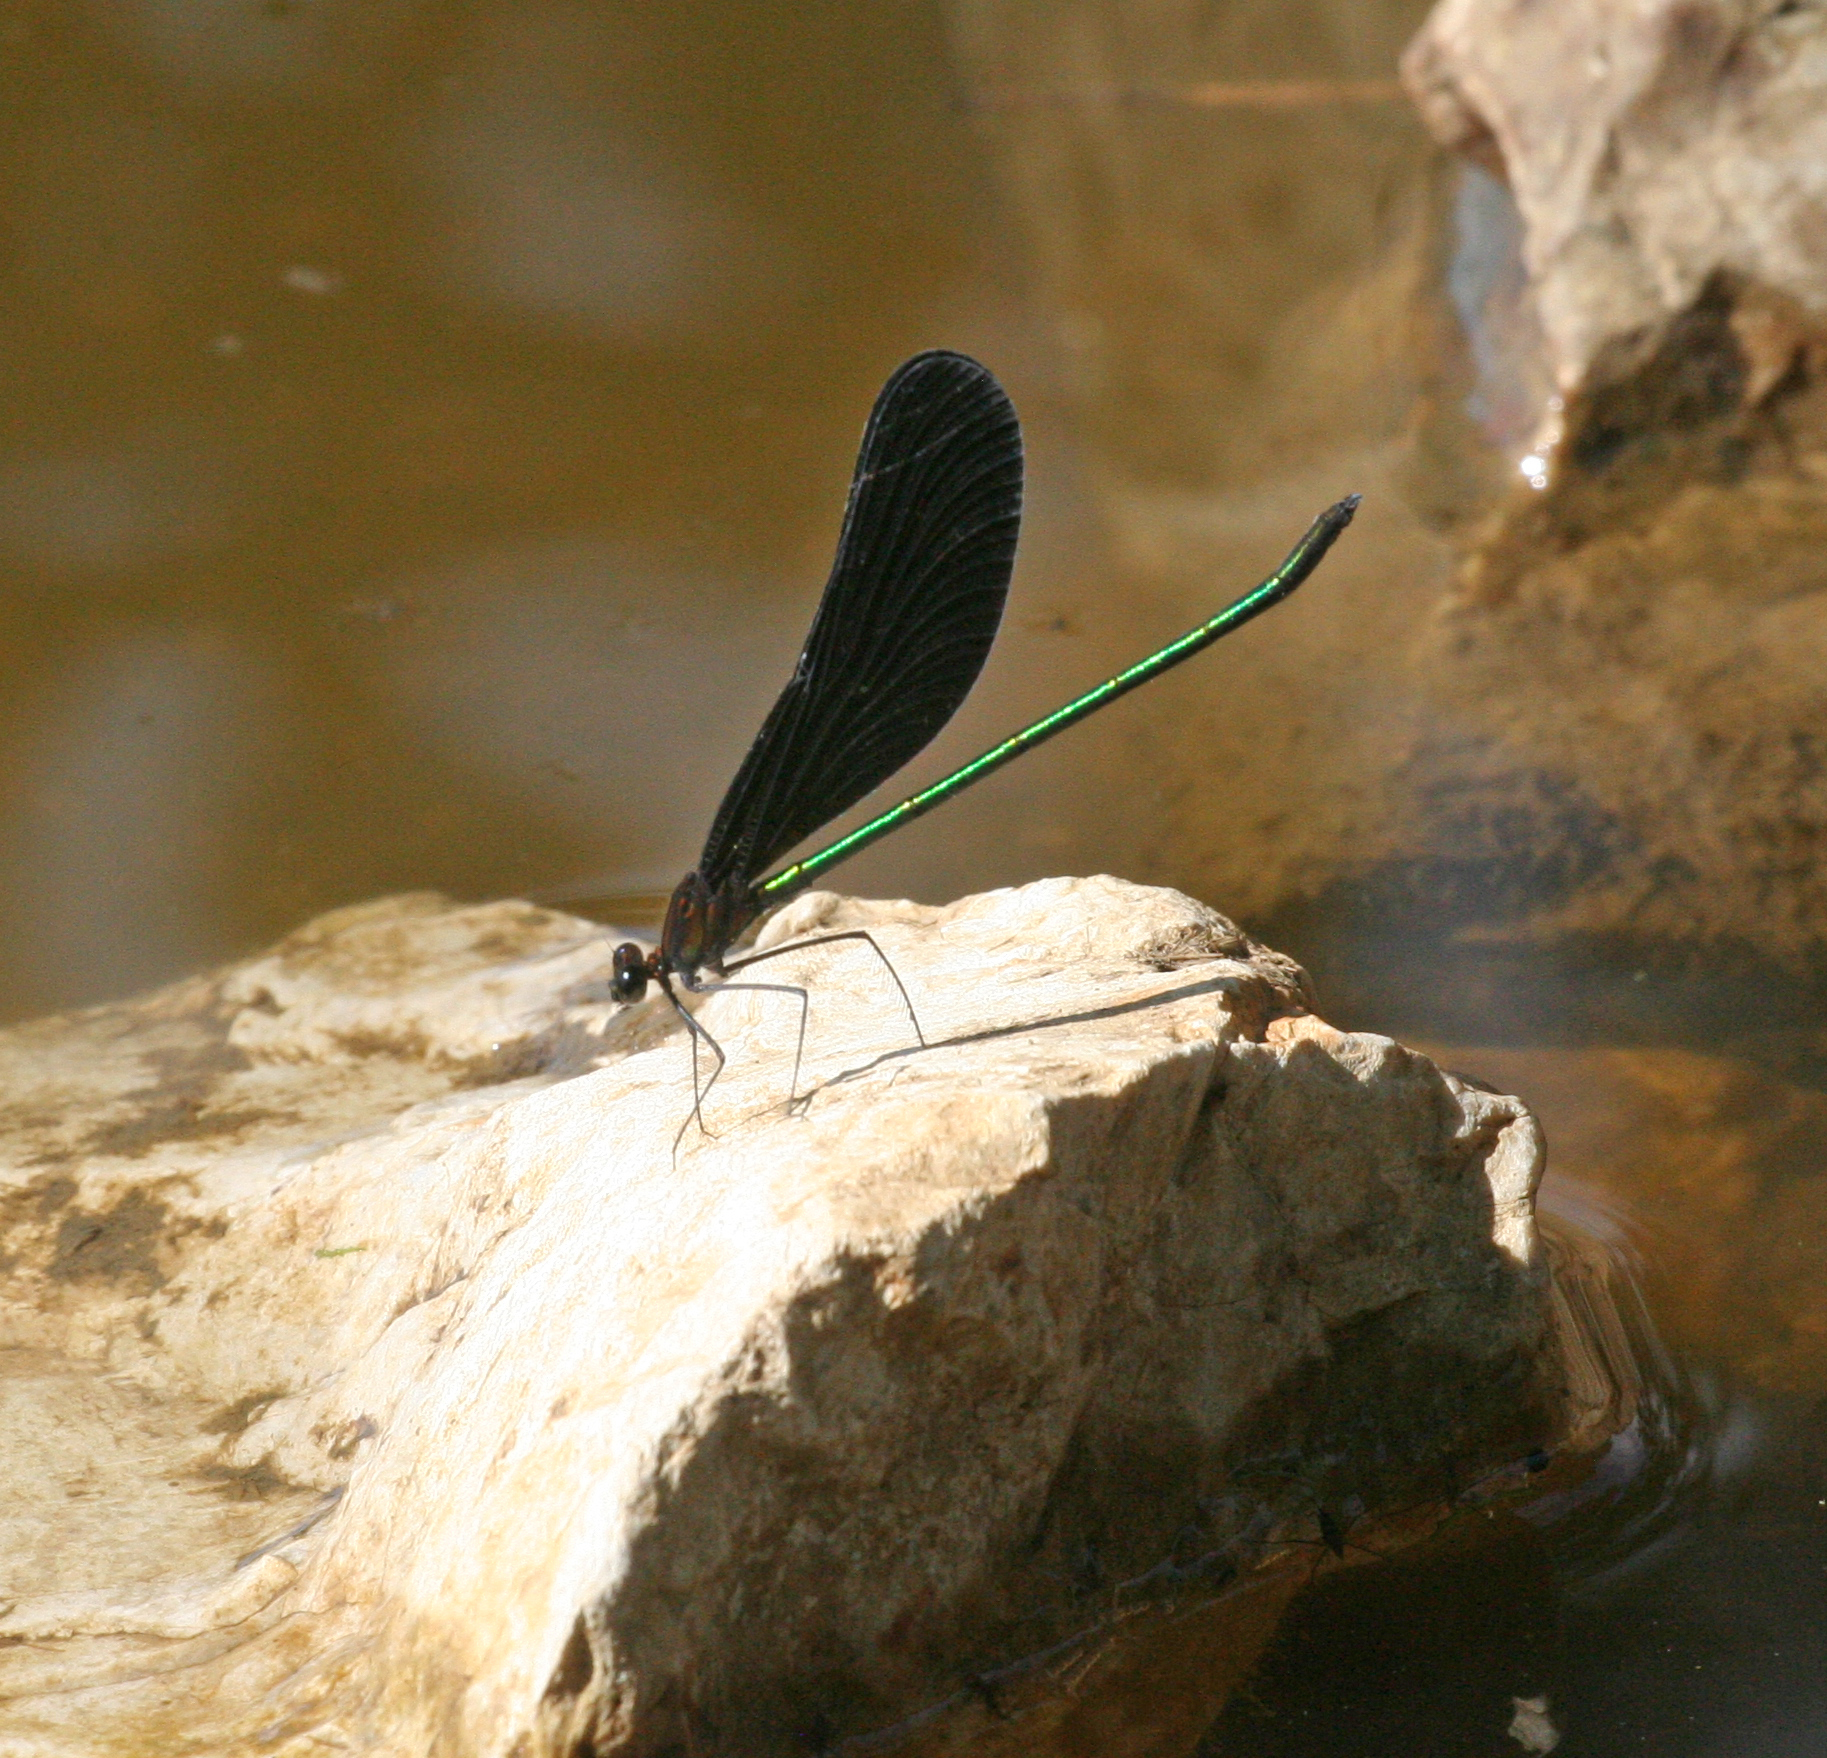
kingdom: Animalia
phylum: Arthropoda
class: Insecta
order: Odonata
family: Calopterygidae
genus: Atrocalopteryx
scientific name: Atrocalopteryx atrata
